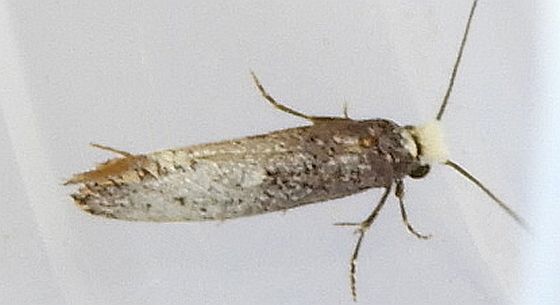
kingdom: Animalia
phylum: Arthropoda
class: Insecta
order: Lepidoptera
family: Tineidae
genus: Tinea
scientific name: Tinea occidentella
